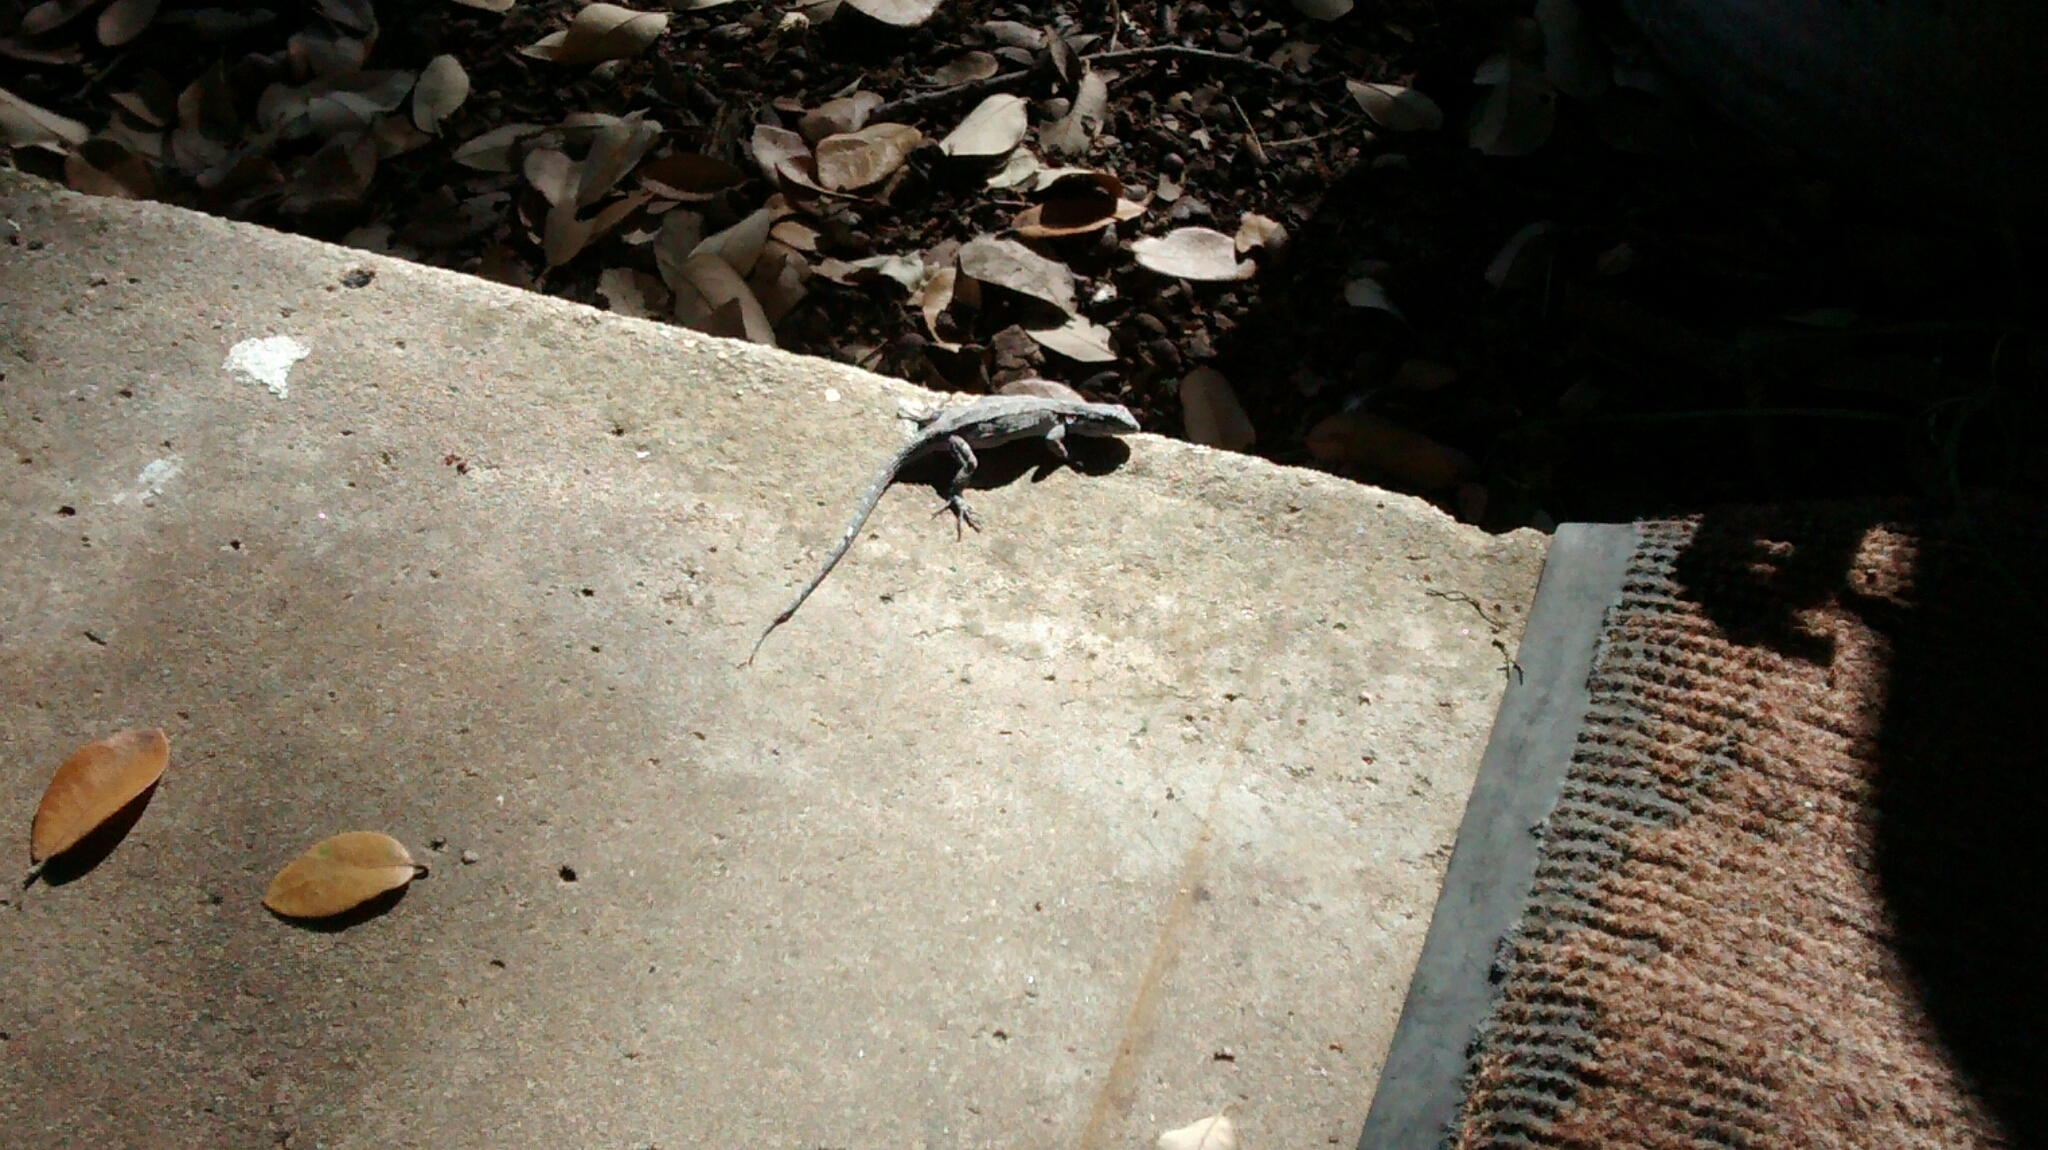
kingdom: Animalia
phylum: Chordata
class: Squamata
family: Phrynosomatidae
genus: Urosaurus
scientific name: Urosaurus ornatus
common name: Ornate tree lizard
